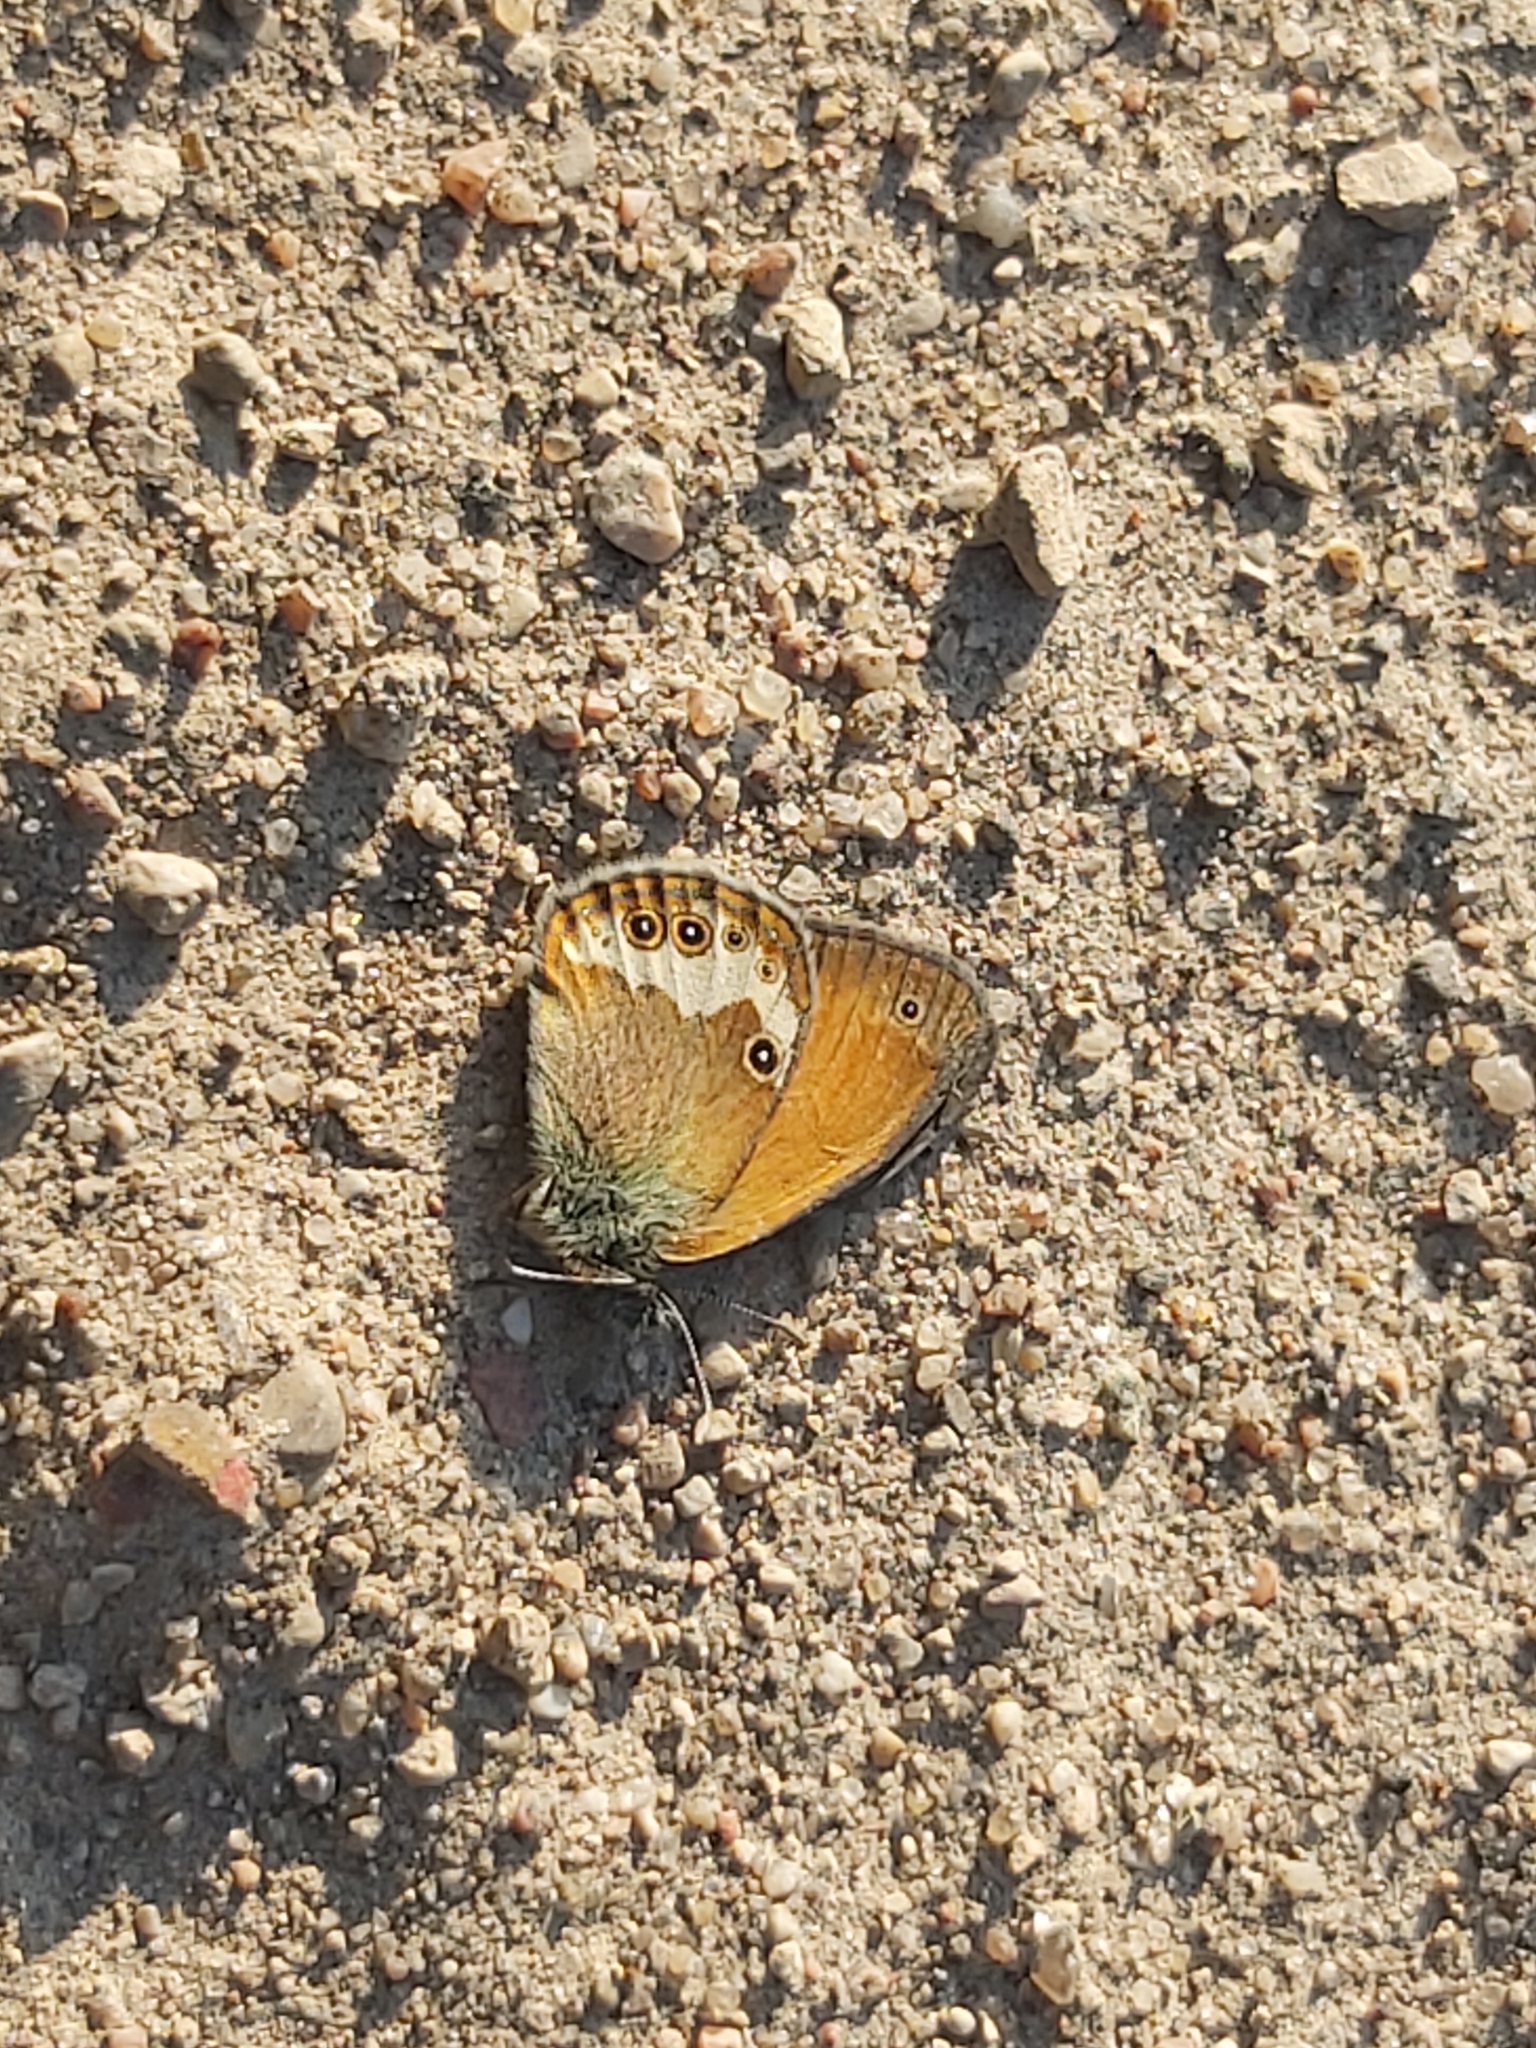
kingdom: Animalia
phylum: Arthropoda
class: Insecta
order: Lepidoptera
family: Nymphalidae
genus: Coenonympha
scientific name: Coenonympha arcania
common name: Pearly heath
